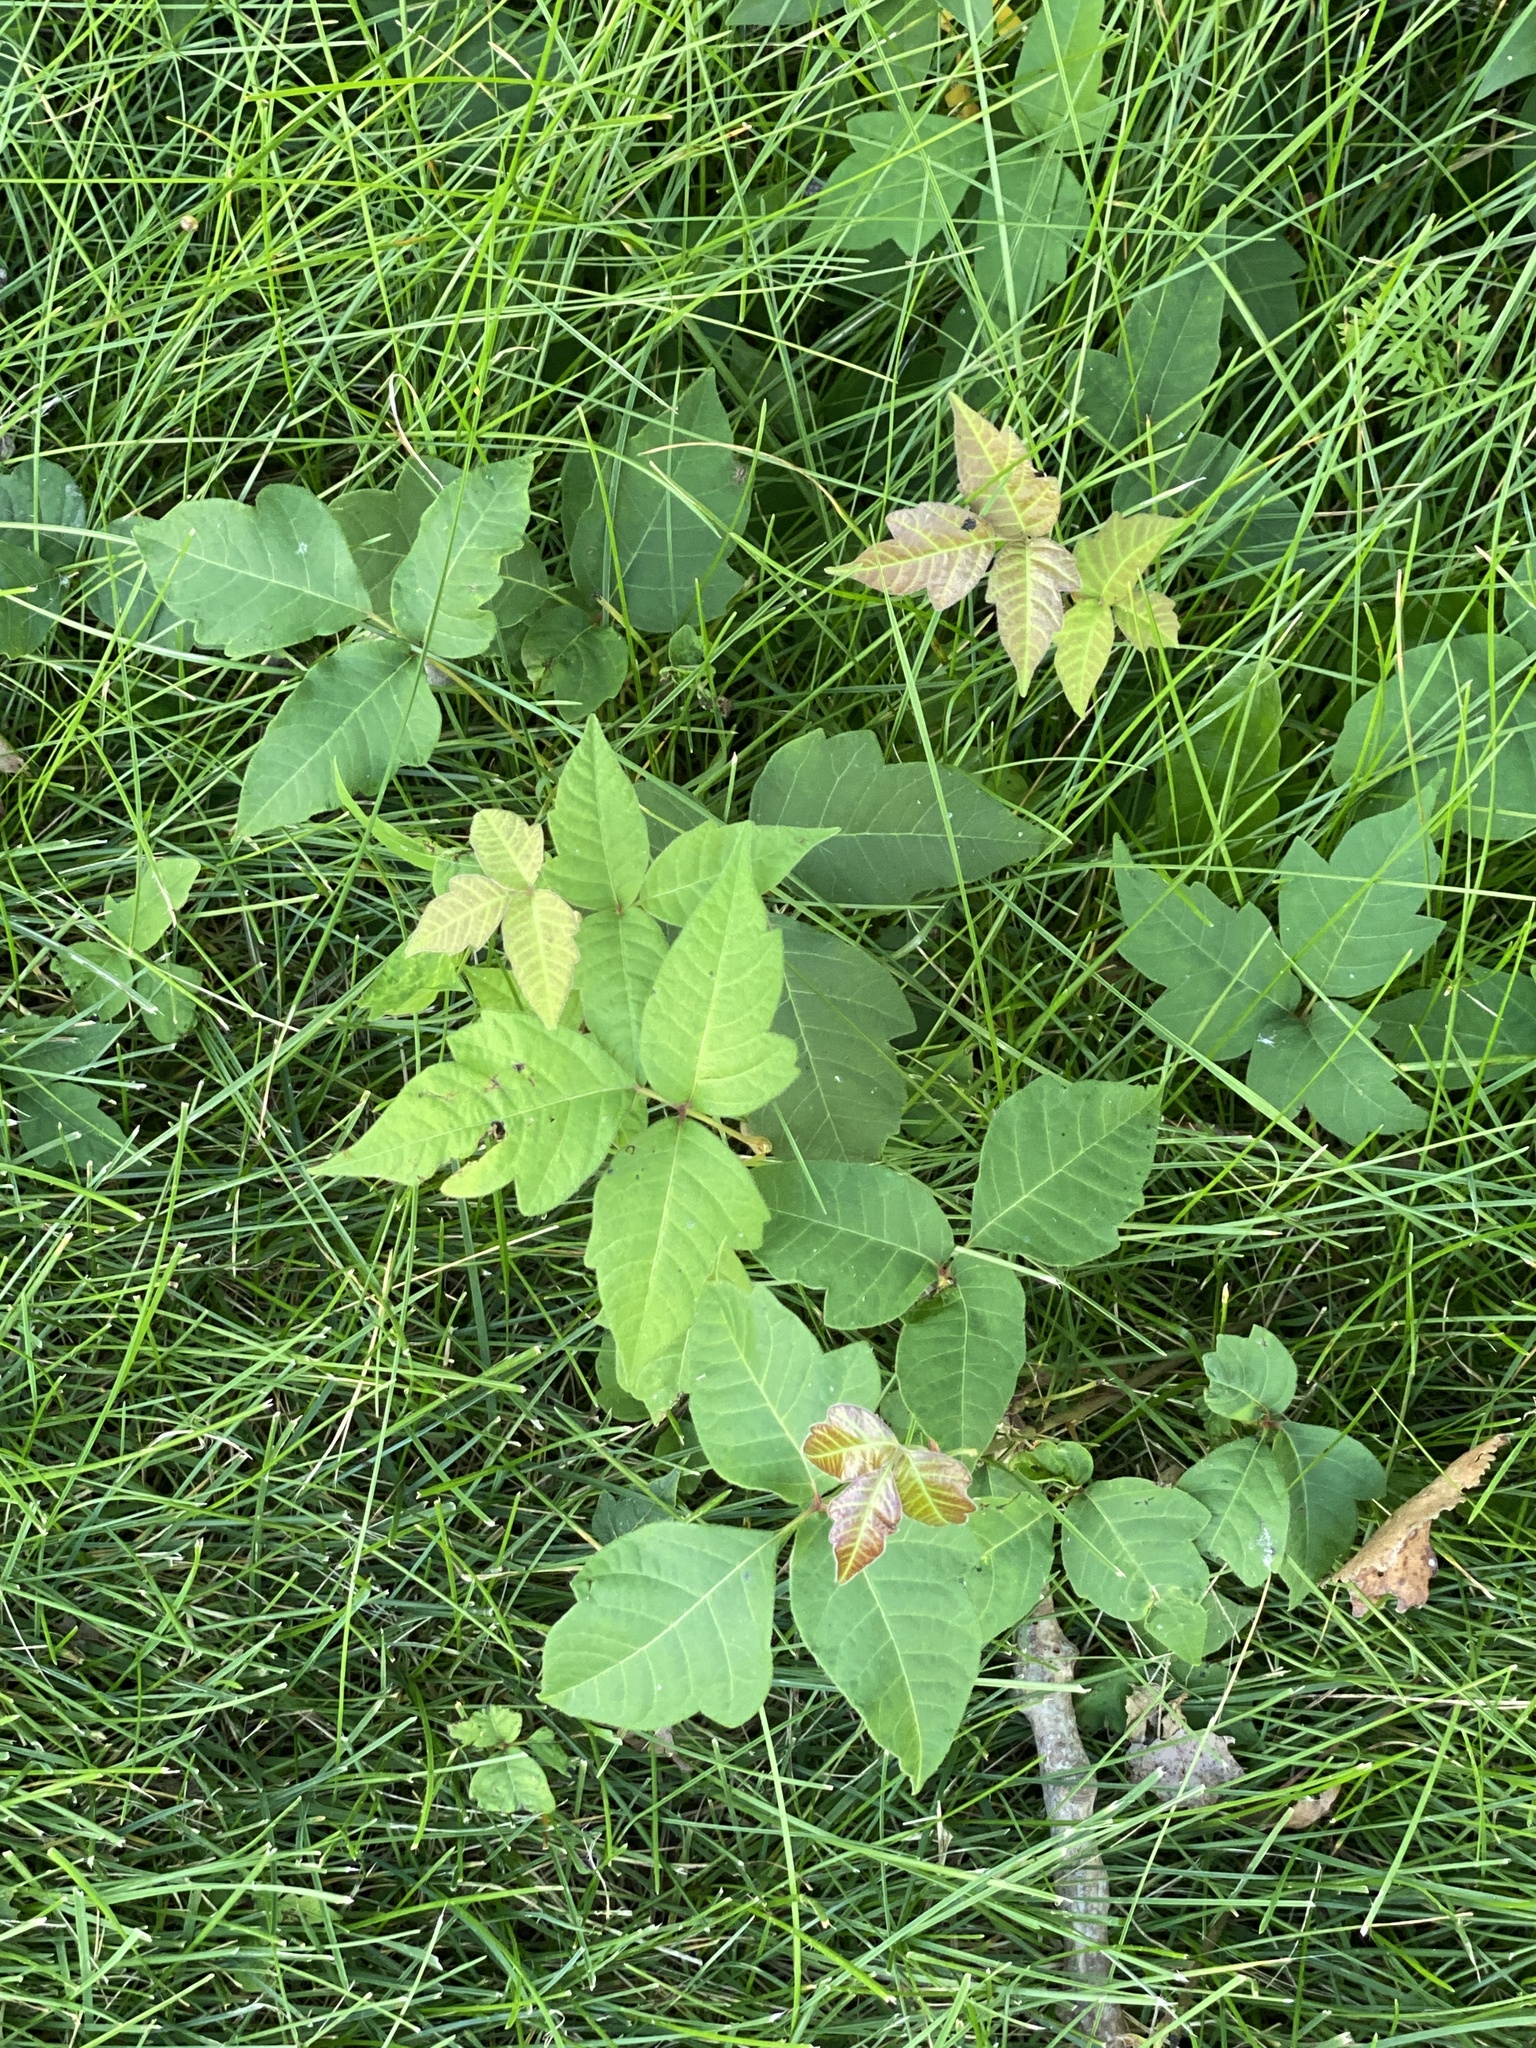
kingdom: Plantae
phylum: Tracheophyta
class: Magnoliopsida
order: Sapindales
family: Anacardiaceae
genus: Toxicodendron
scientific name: Toxicodendron radicans
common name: Poison ivy
